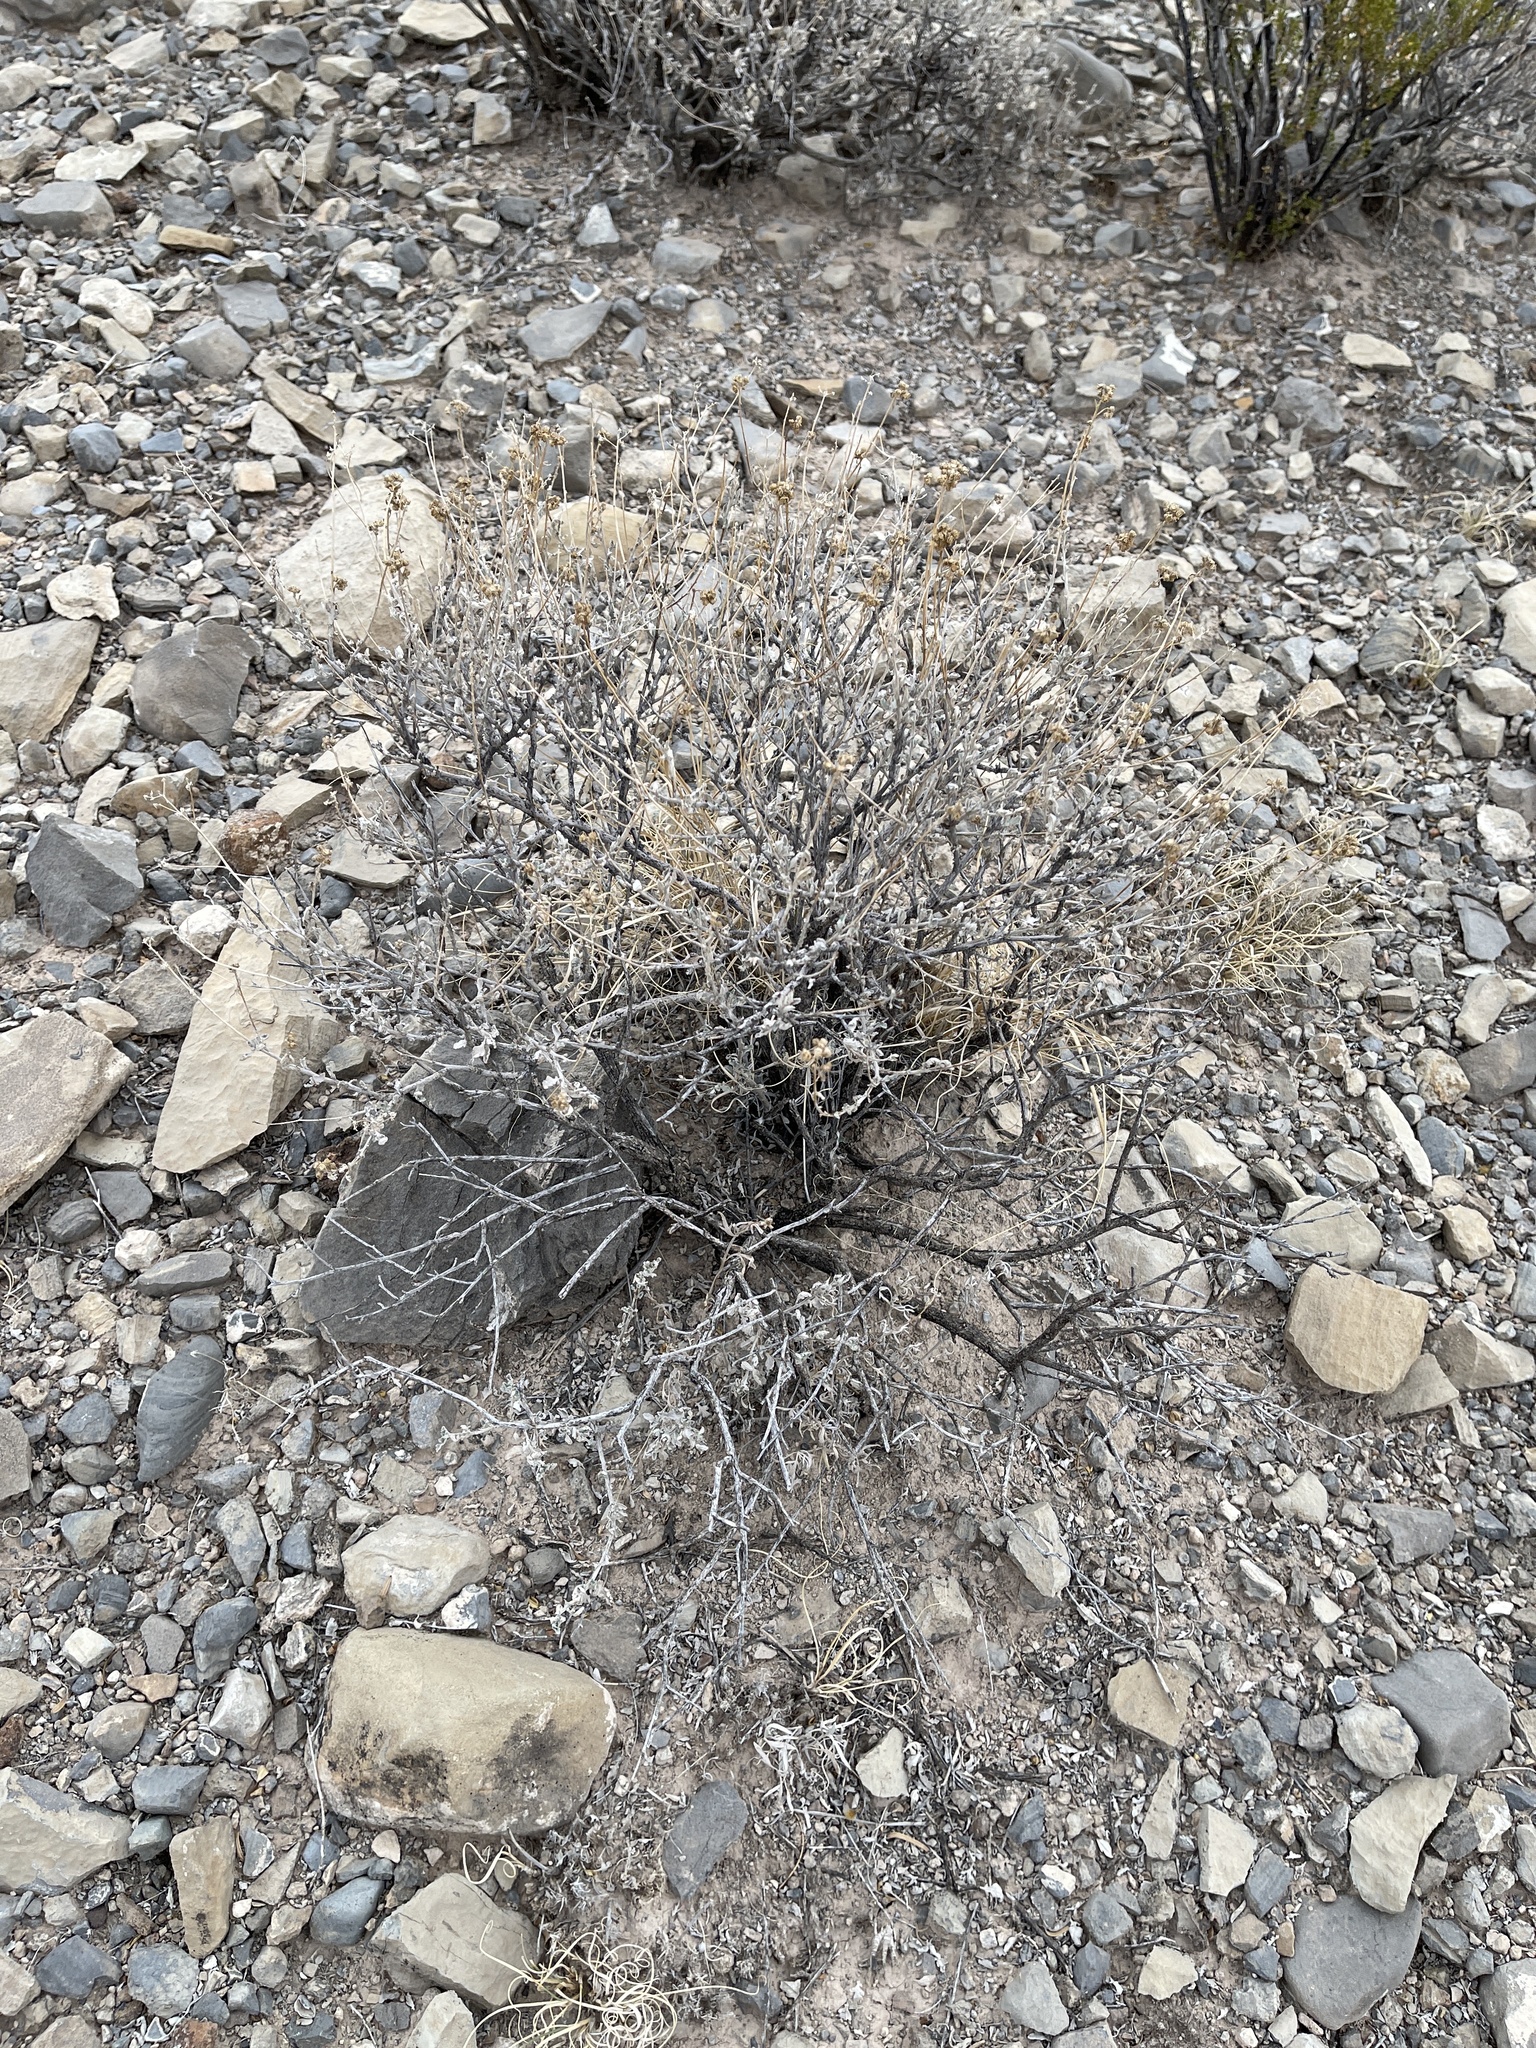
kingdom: Plantae
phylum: Tracheophyta
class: Magnoliopsida
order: Asterales
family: Asteraceae
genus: Parthenium
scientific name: Parthenium incanum
